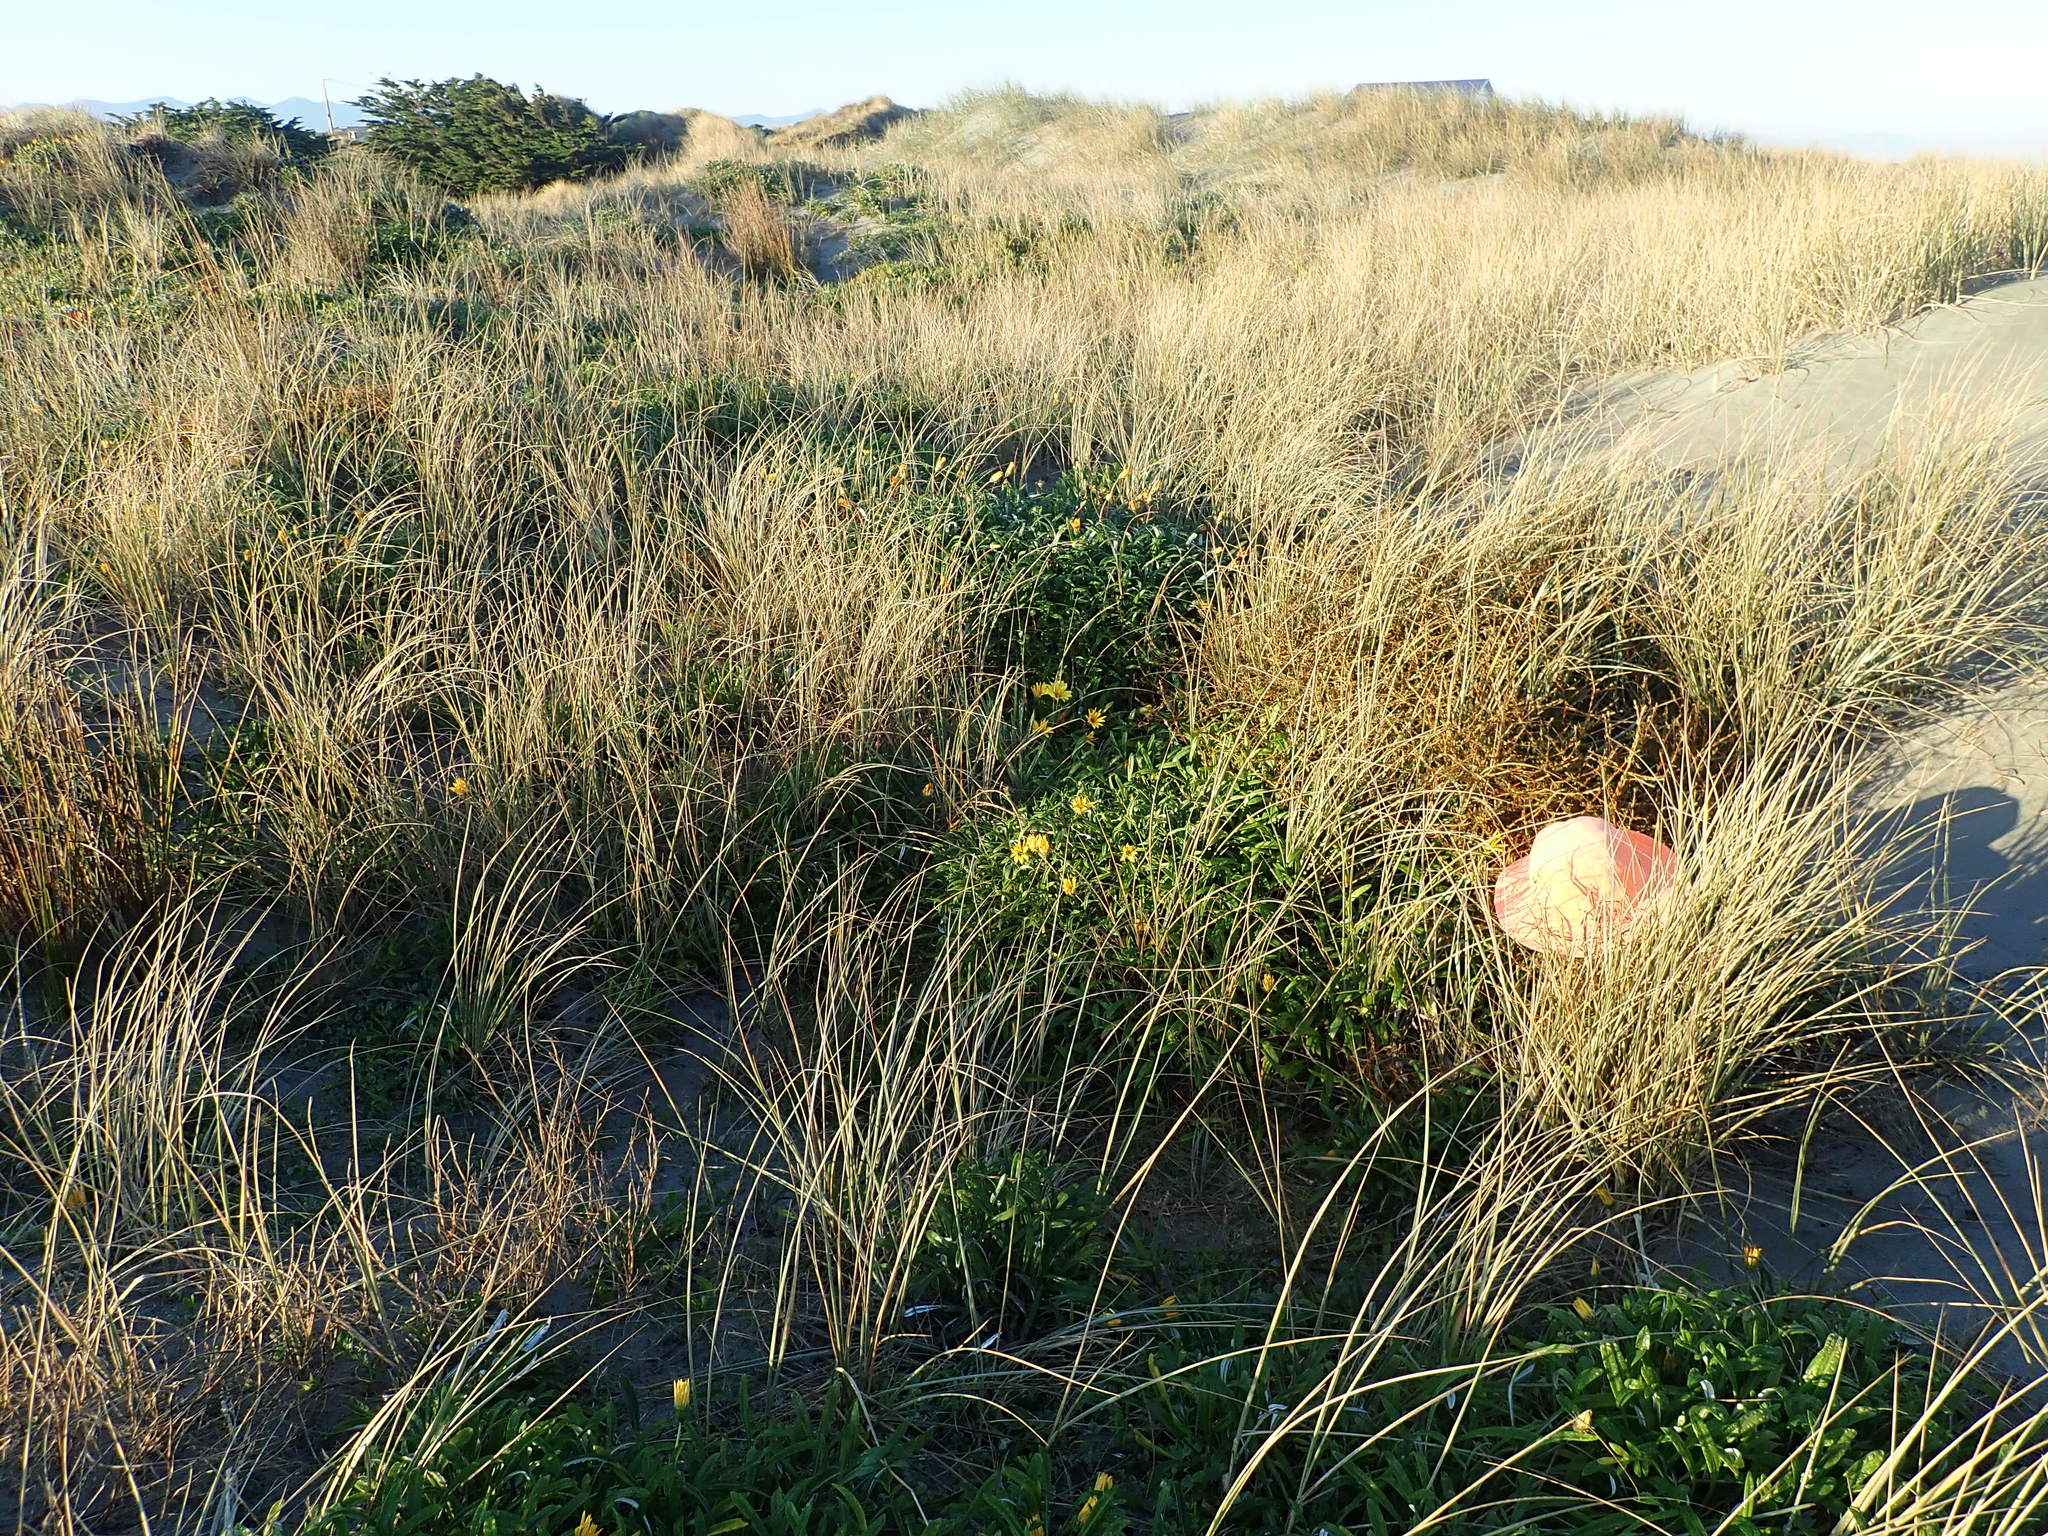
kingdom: Plantae
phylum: Tracheophyta
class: Magnoliopsida
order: Gentianales
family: Rubiaceae
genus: Coprosma
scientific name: Coprosma acerosa
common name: Sand coprosma
